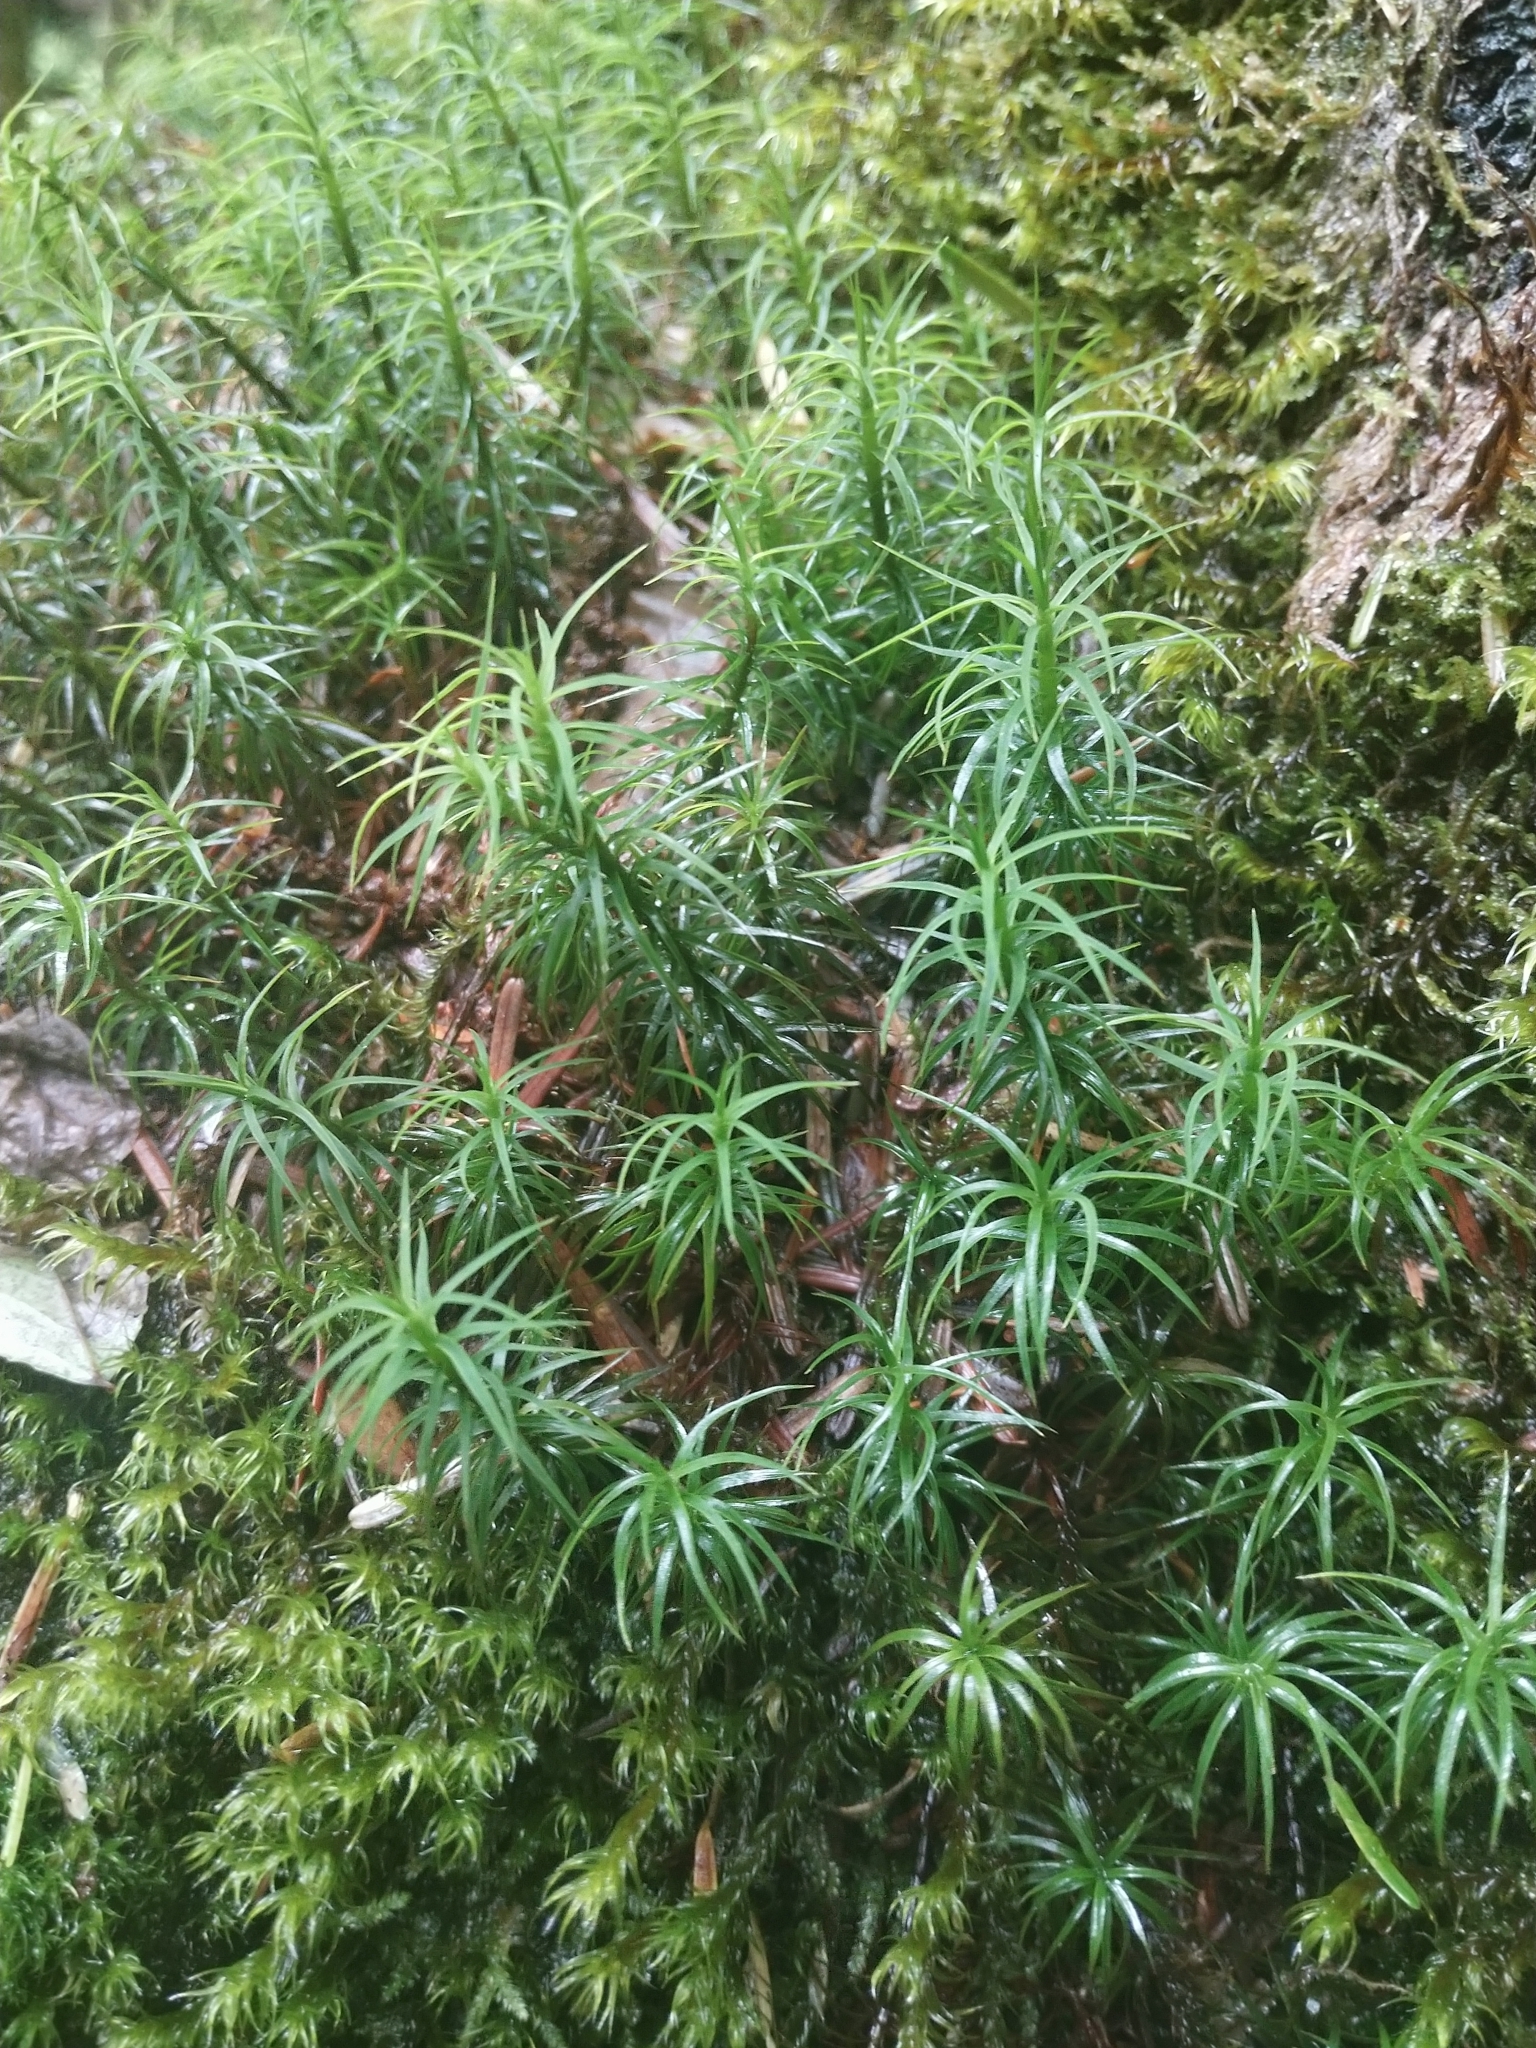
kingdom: Plantae
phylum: Bryophyta
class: Polytrichopsida
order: Polytrichales
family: Polytrichaceae
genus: Polytrichastrum
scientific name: Polytrichastrum alpinum
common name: Alpine haircap
